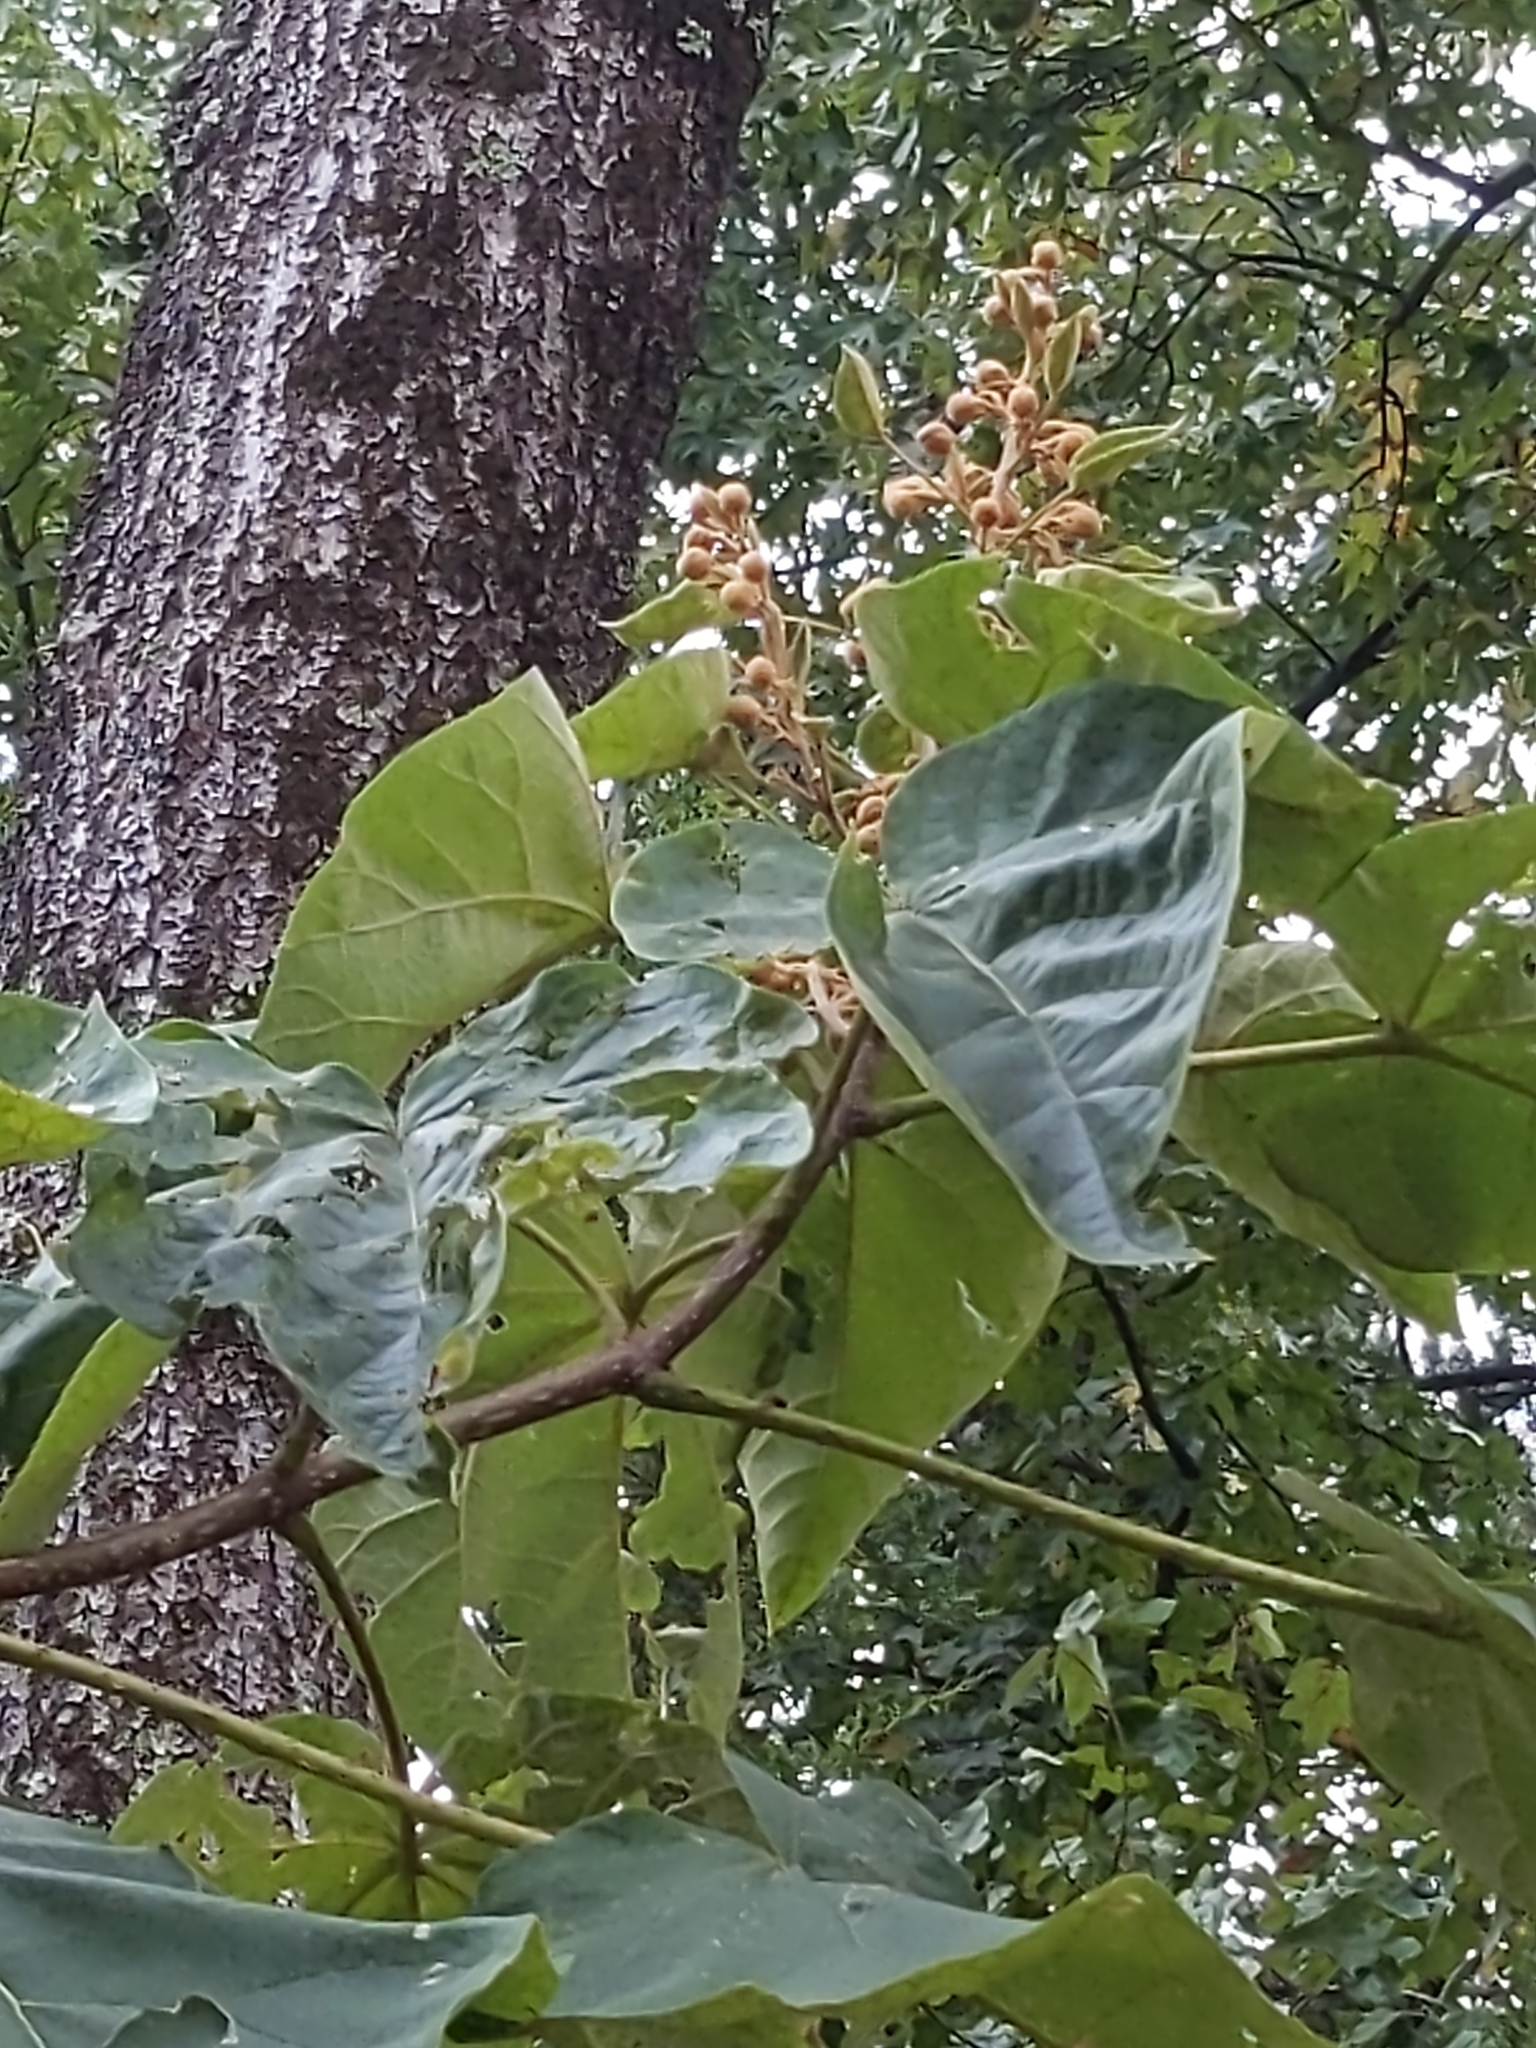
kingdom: Plantae
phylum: Tracheophyta
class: Magnoliopsida
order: Lamiales
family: Paulowniaceae
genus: Paulownia
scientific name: Paulownia tomentosa
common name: Foxglove-tree
